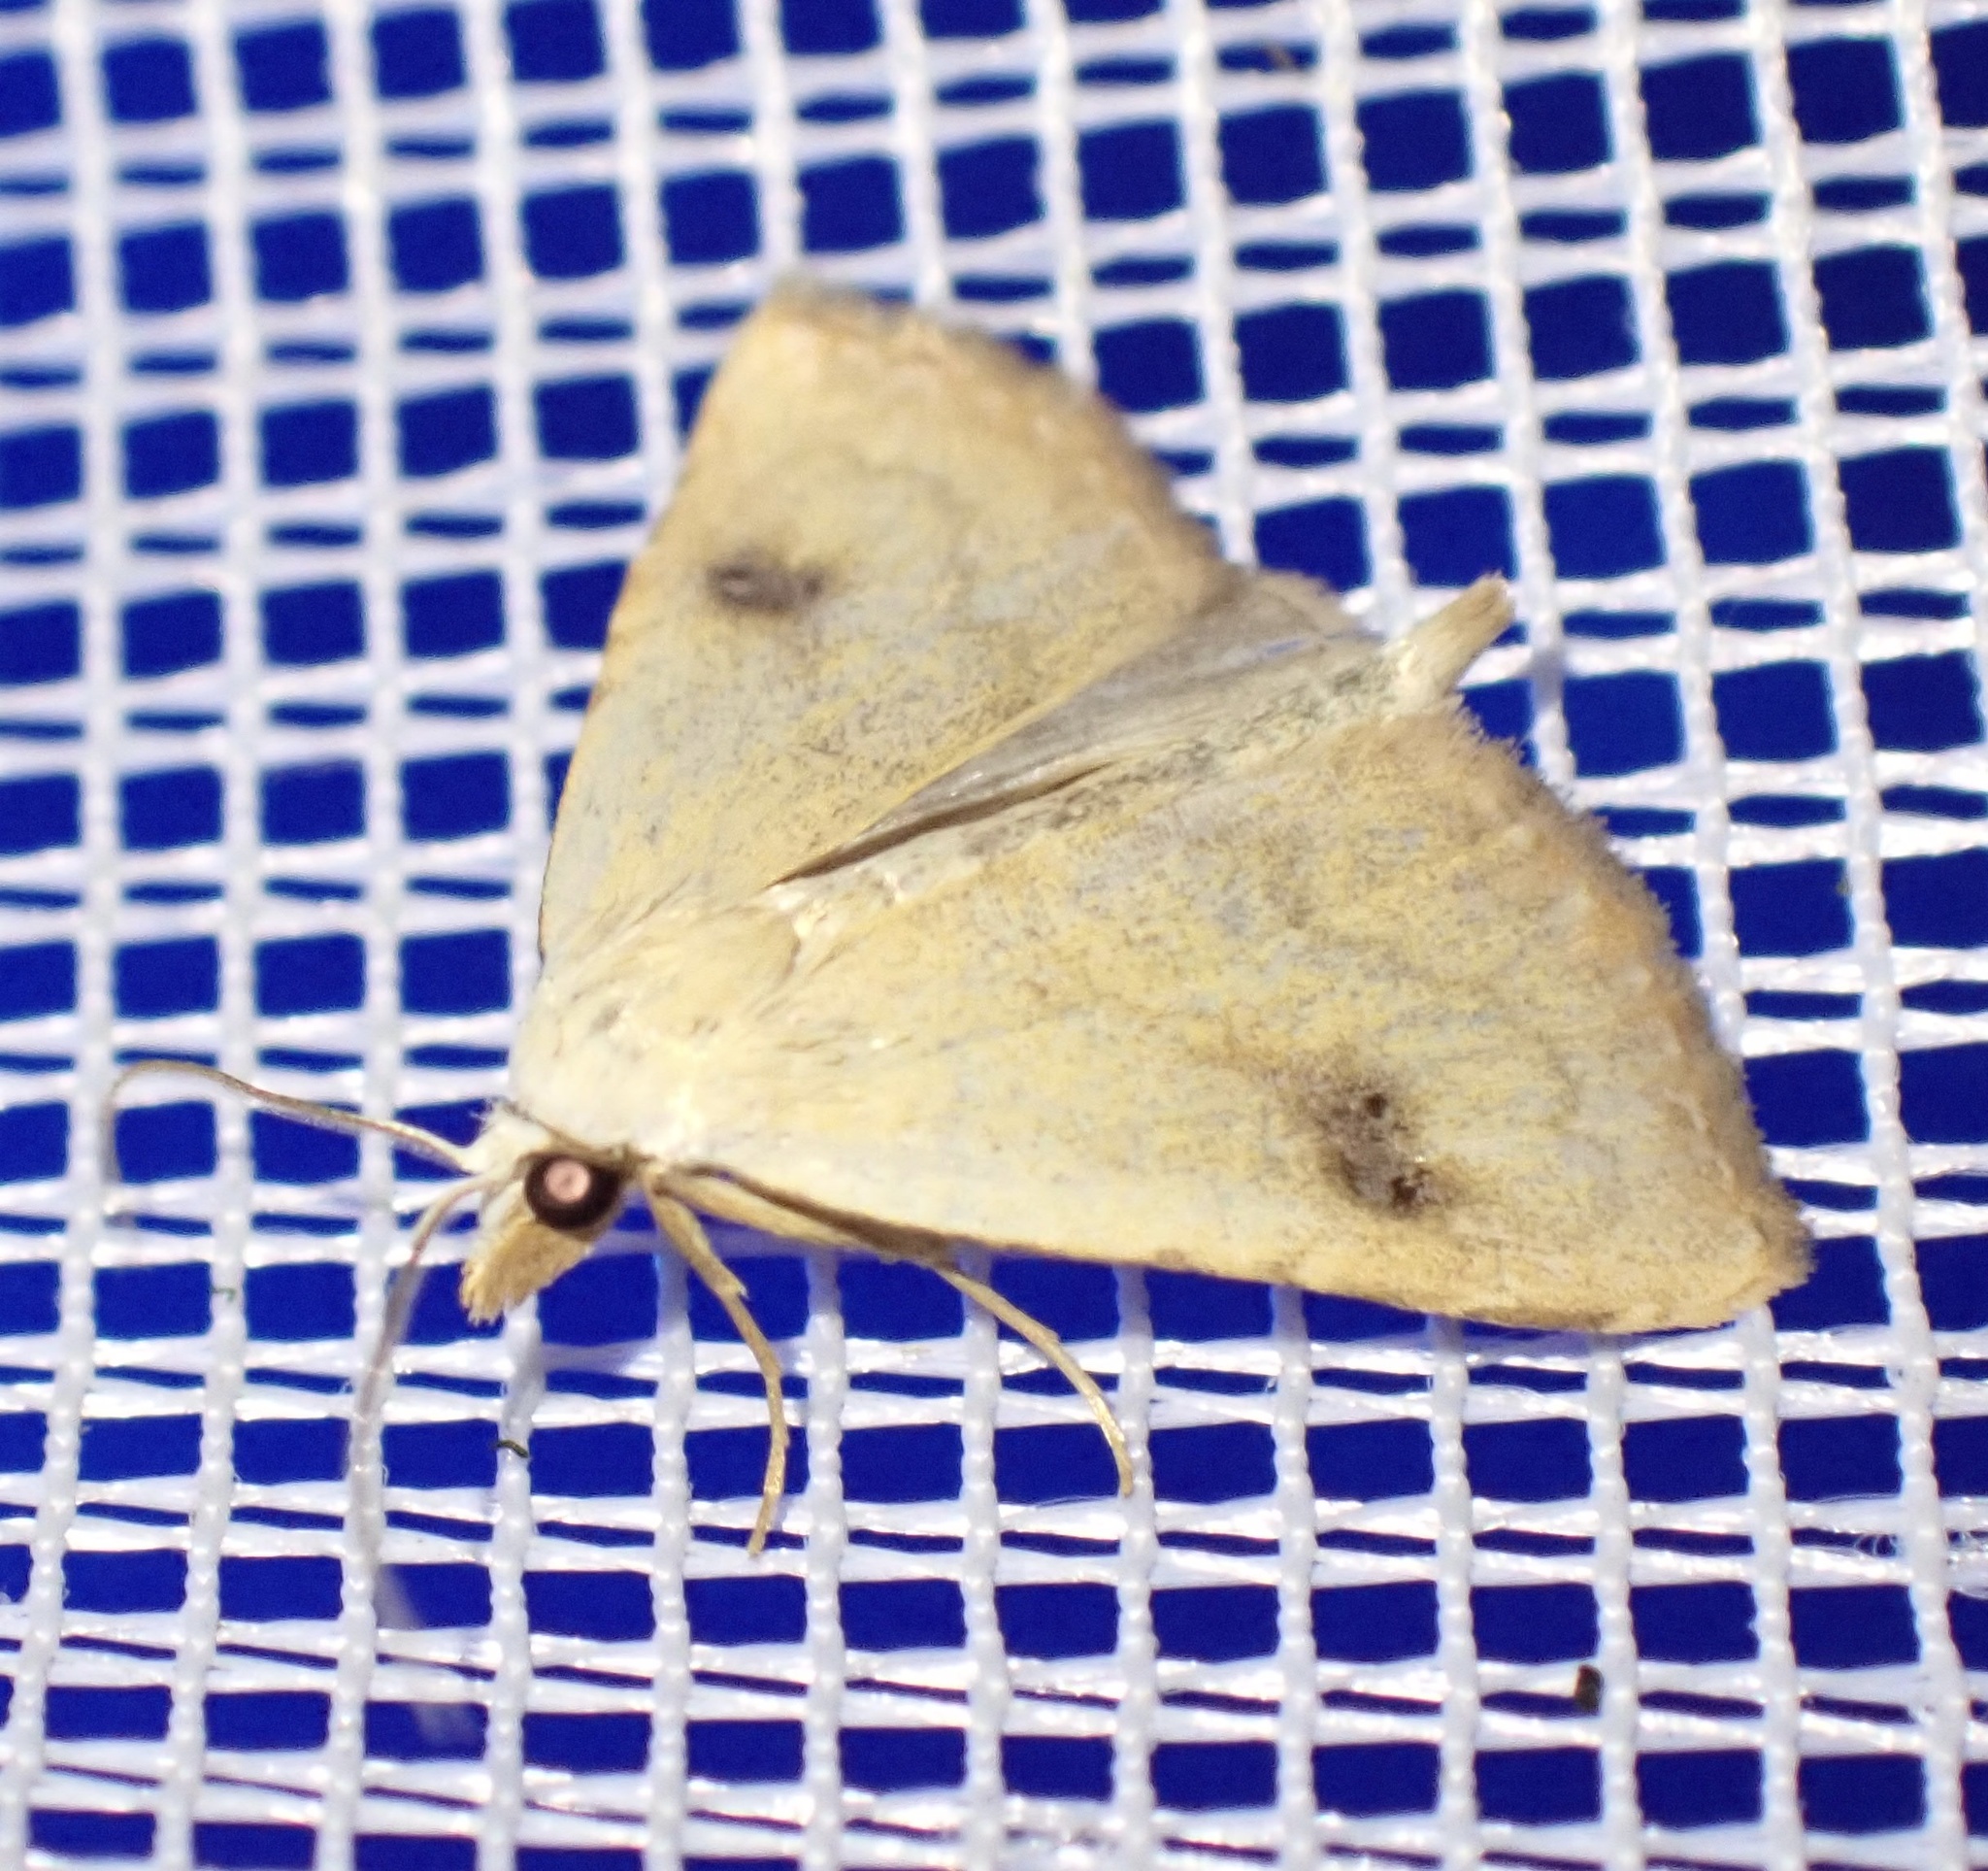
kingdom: Animalia
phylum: Arthropoda
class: Insecta
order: Lepidoptera
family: Erebidae
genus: Rivula
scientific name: Rivula sericealis
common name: Straw dot
